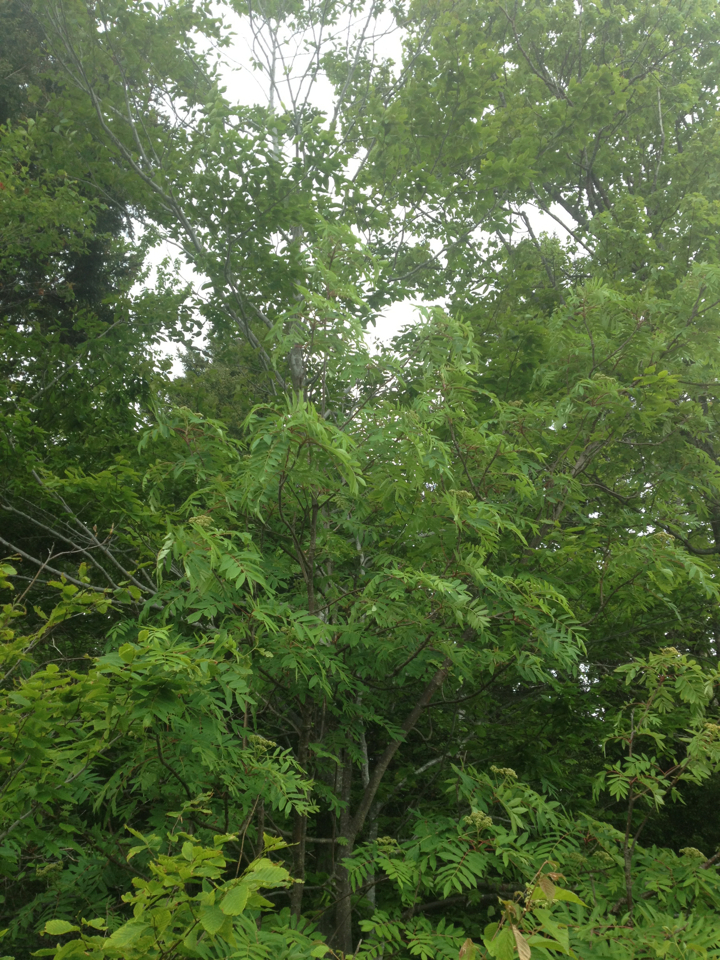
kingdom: Plantae
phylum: Tracheophyta
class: Magnoliopsida
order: Rosales
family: Rosaceae
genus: Sorbus
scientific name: Sorbus americana
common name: American mountain-ash
